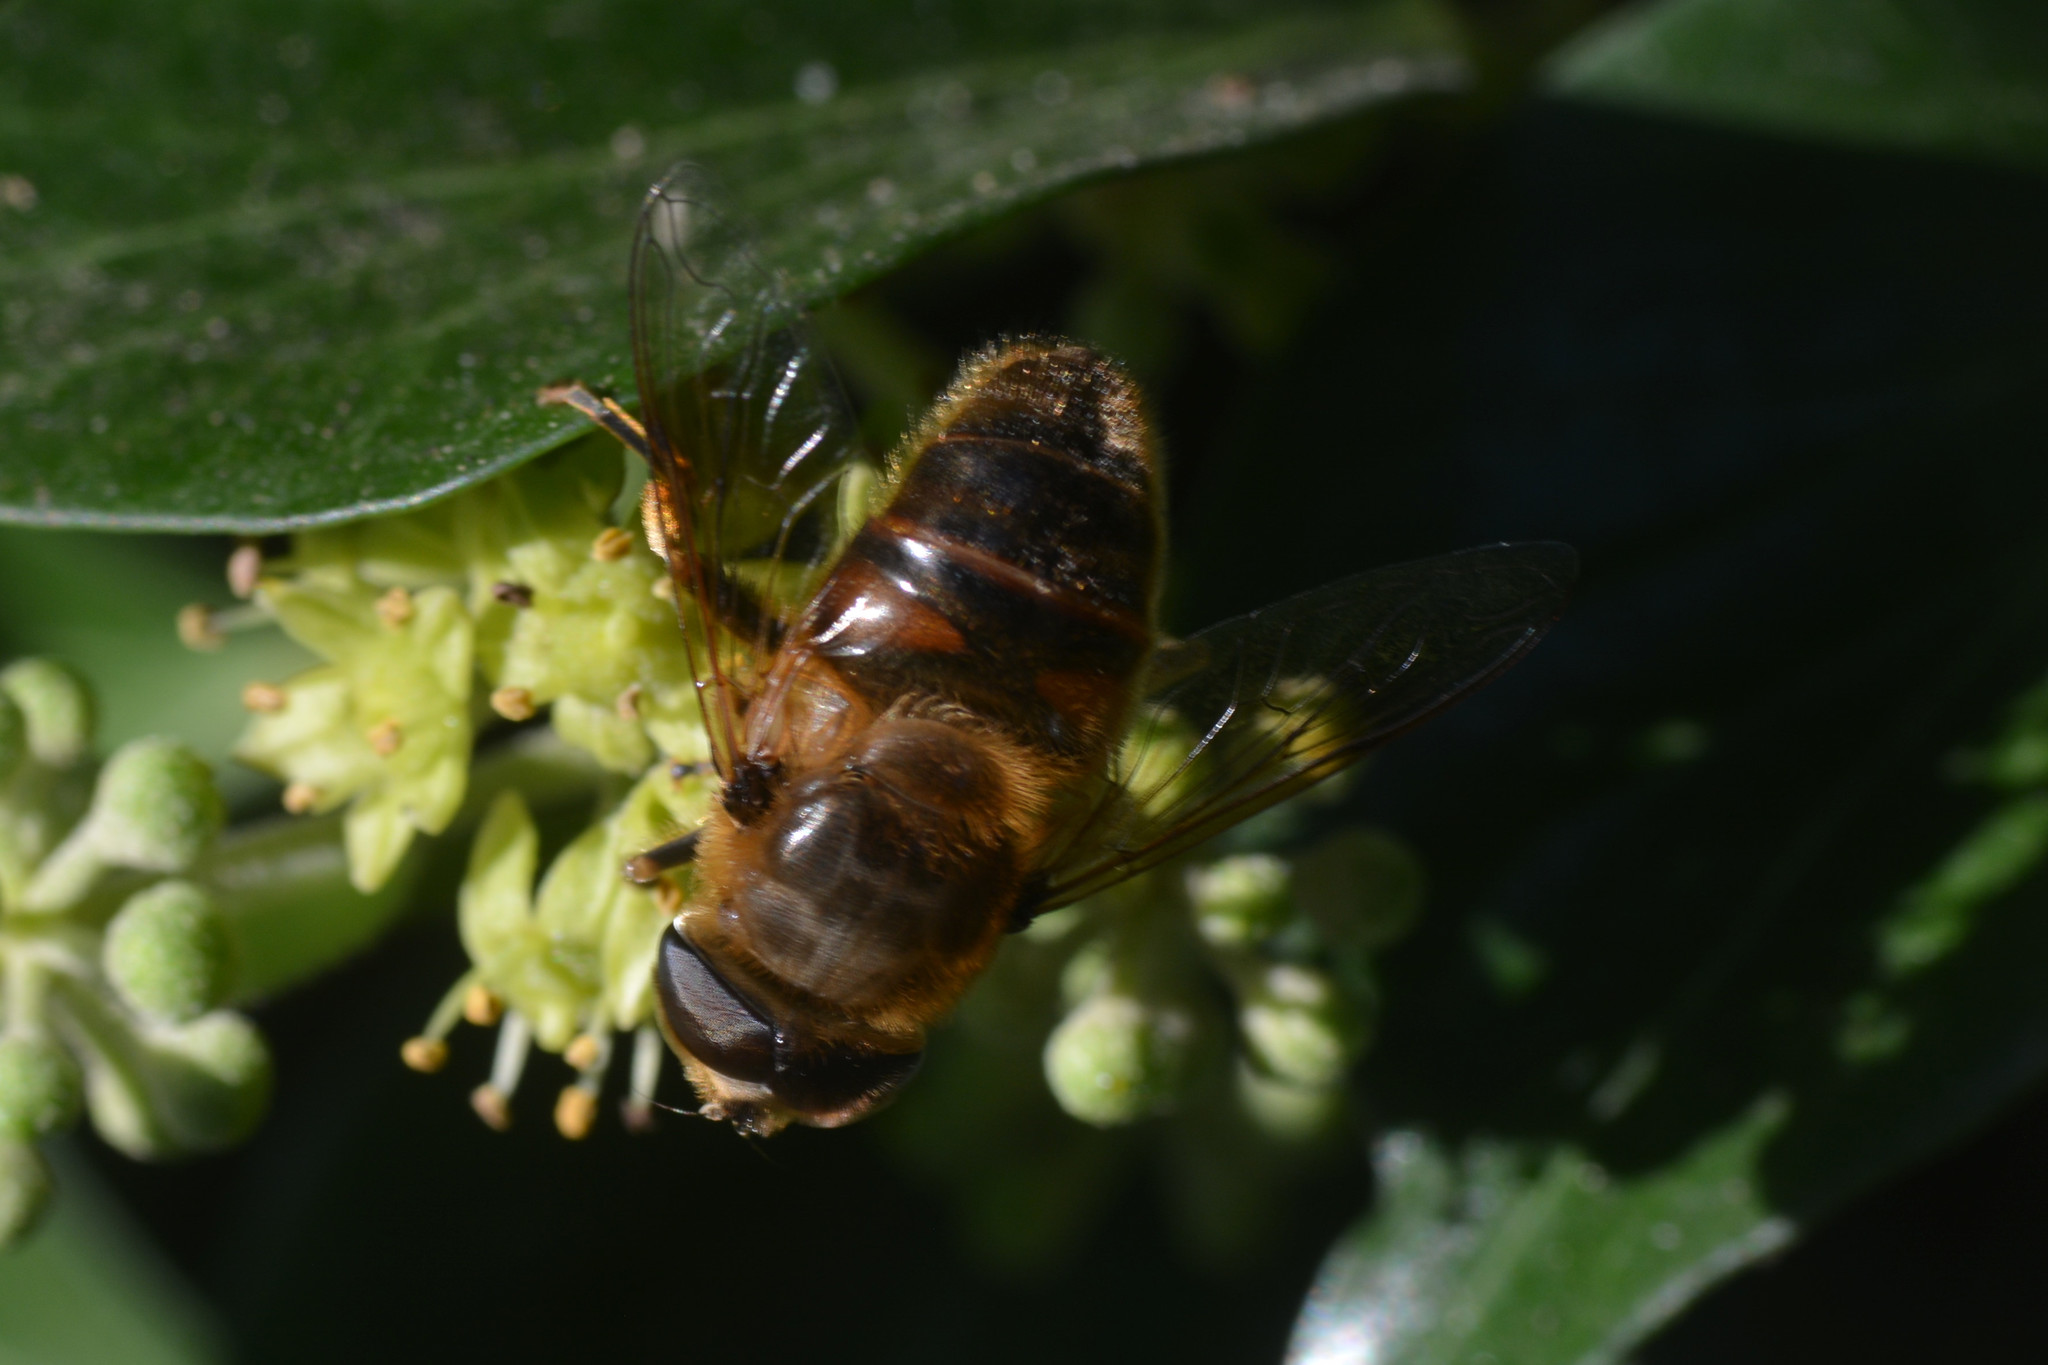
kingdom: Animalia
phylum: Arthropoda
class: Insecta
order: Diptera
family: Syrphidae
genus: Eristalis
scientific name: Eristalis tenax
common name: Drone fly
